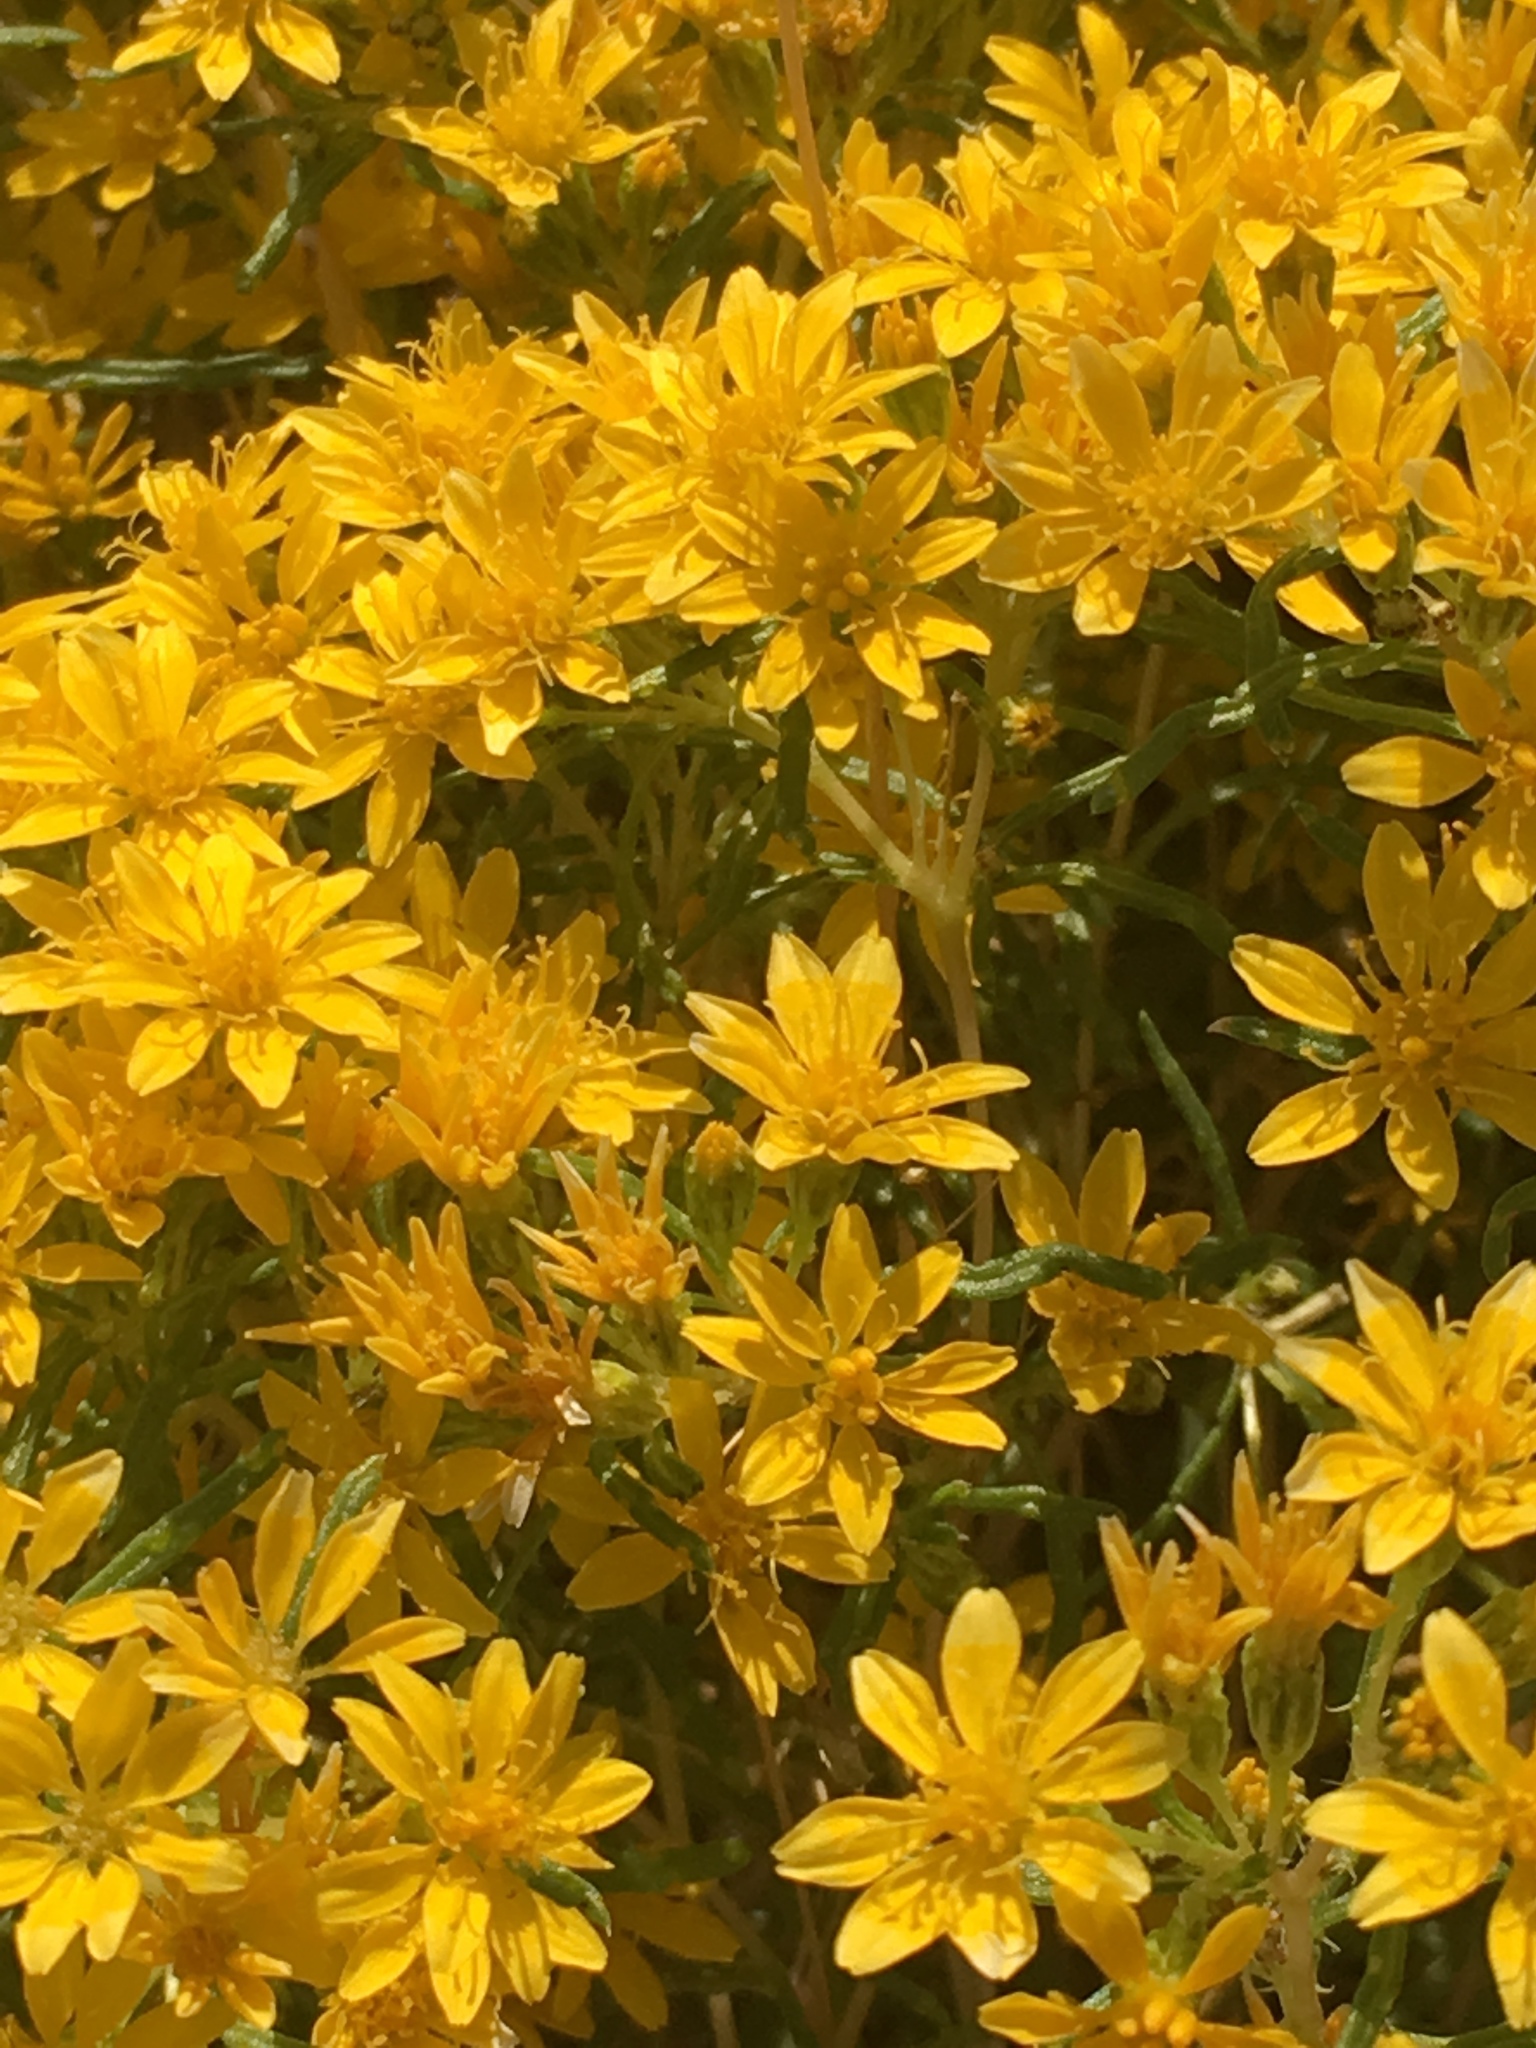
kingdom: Plantae
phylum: Tracheophyta
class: Magnoliopsida
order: Asterales
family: Asteraceae
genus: Pectis
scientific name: Pectis papposa
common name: Many-bristle chinchweed
